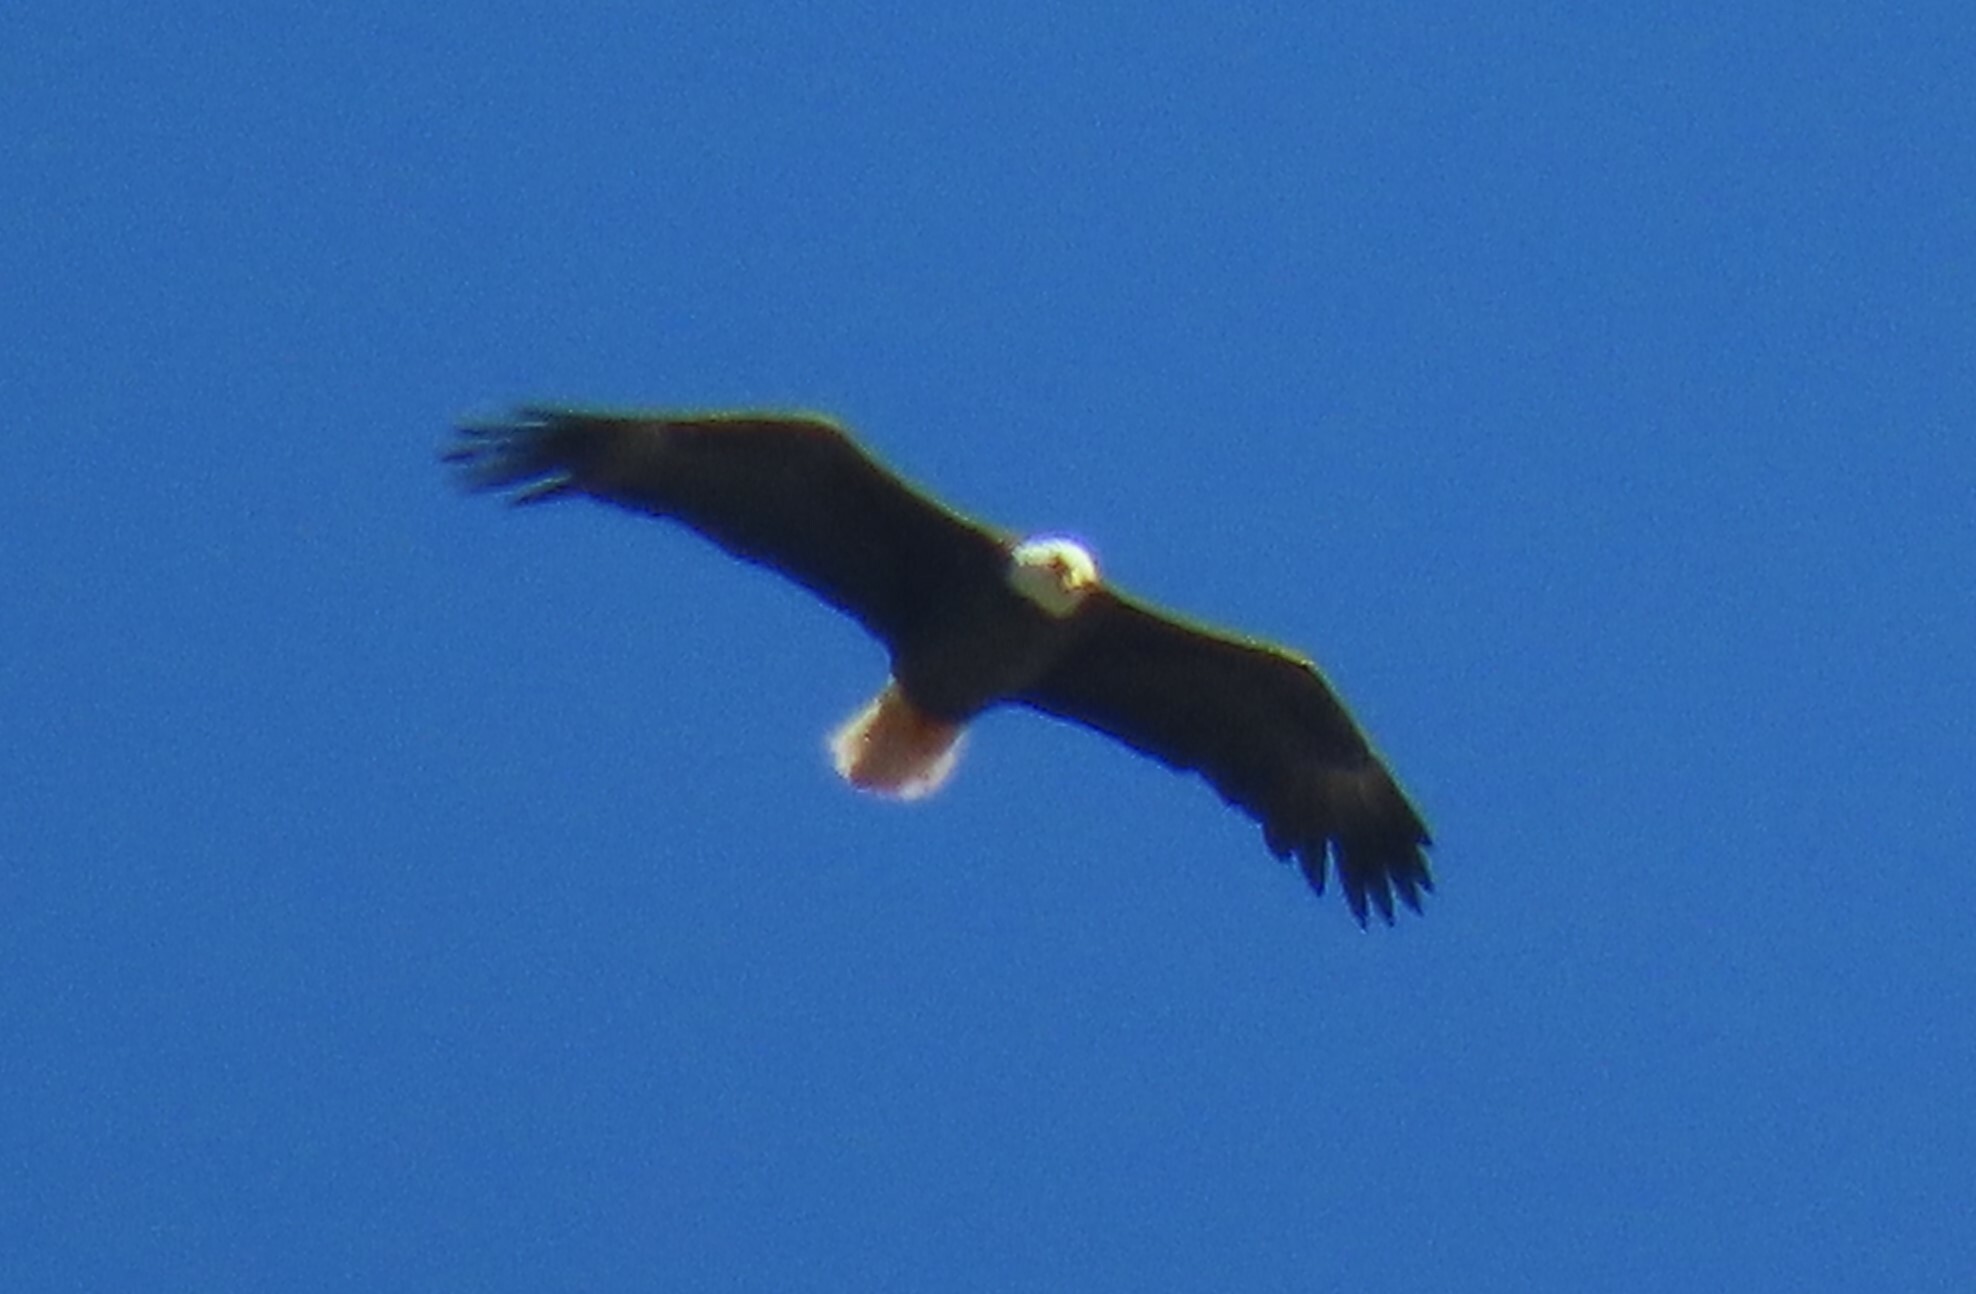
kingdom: Animalia
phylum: Chordata
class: Aves
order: Accipitriformes
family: Accipitridae
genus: Haliaeetus
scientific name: Haliaeetus leucocephalus
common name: Bald eagle
